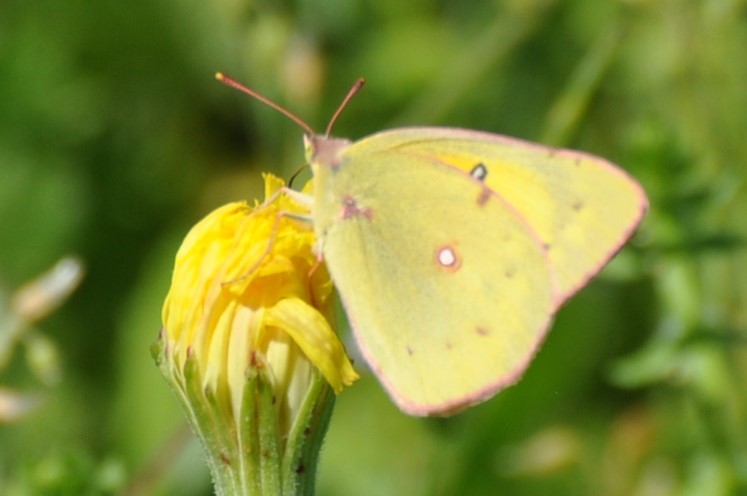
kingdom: Animalia
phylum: Arthropoda
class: Insecta
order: Lepidoptera
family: Pieridae
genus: Colias
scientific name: Colias eurytheme
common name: Alfalfa butterfly
